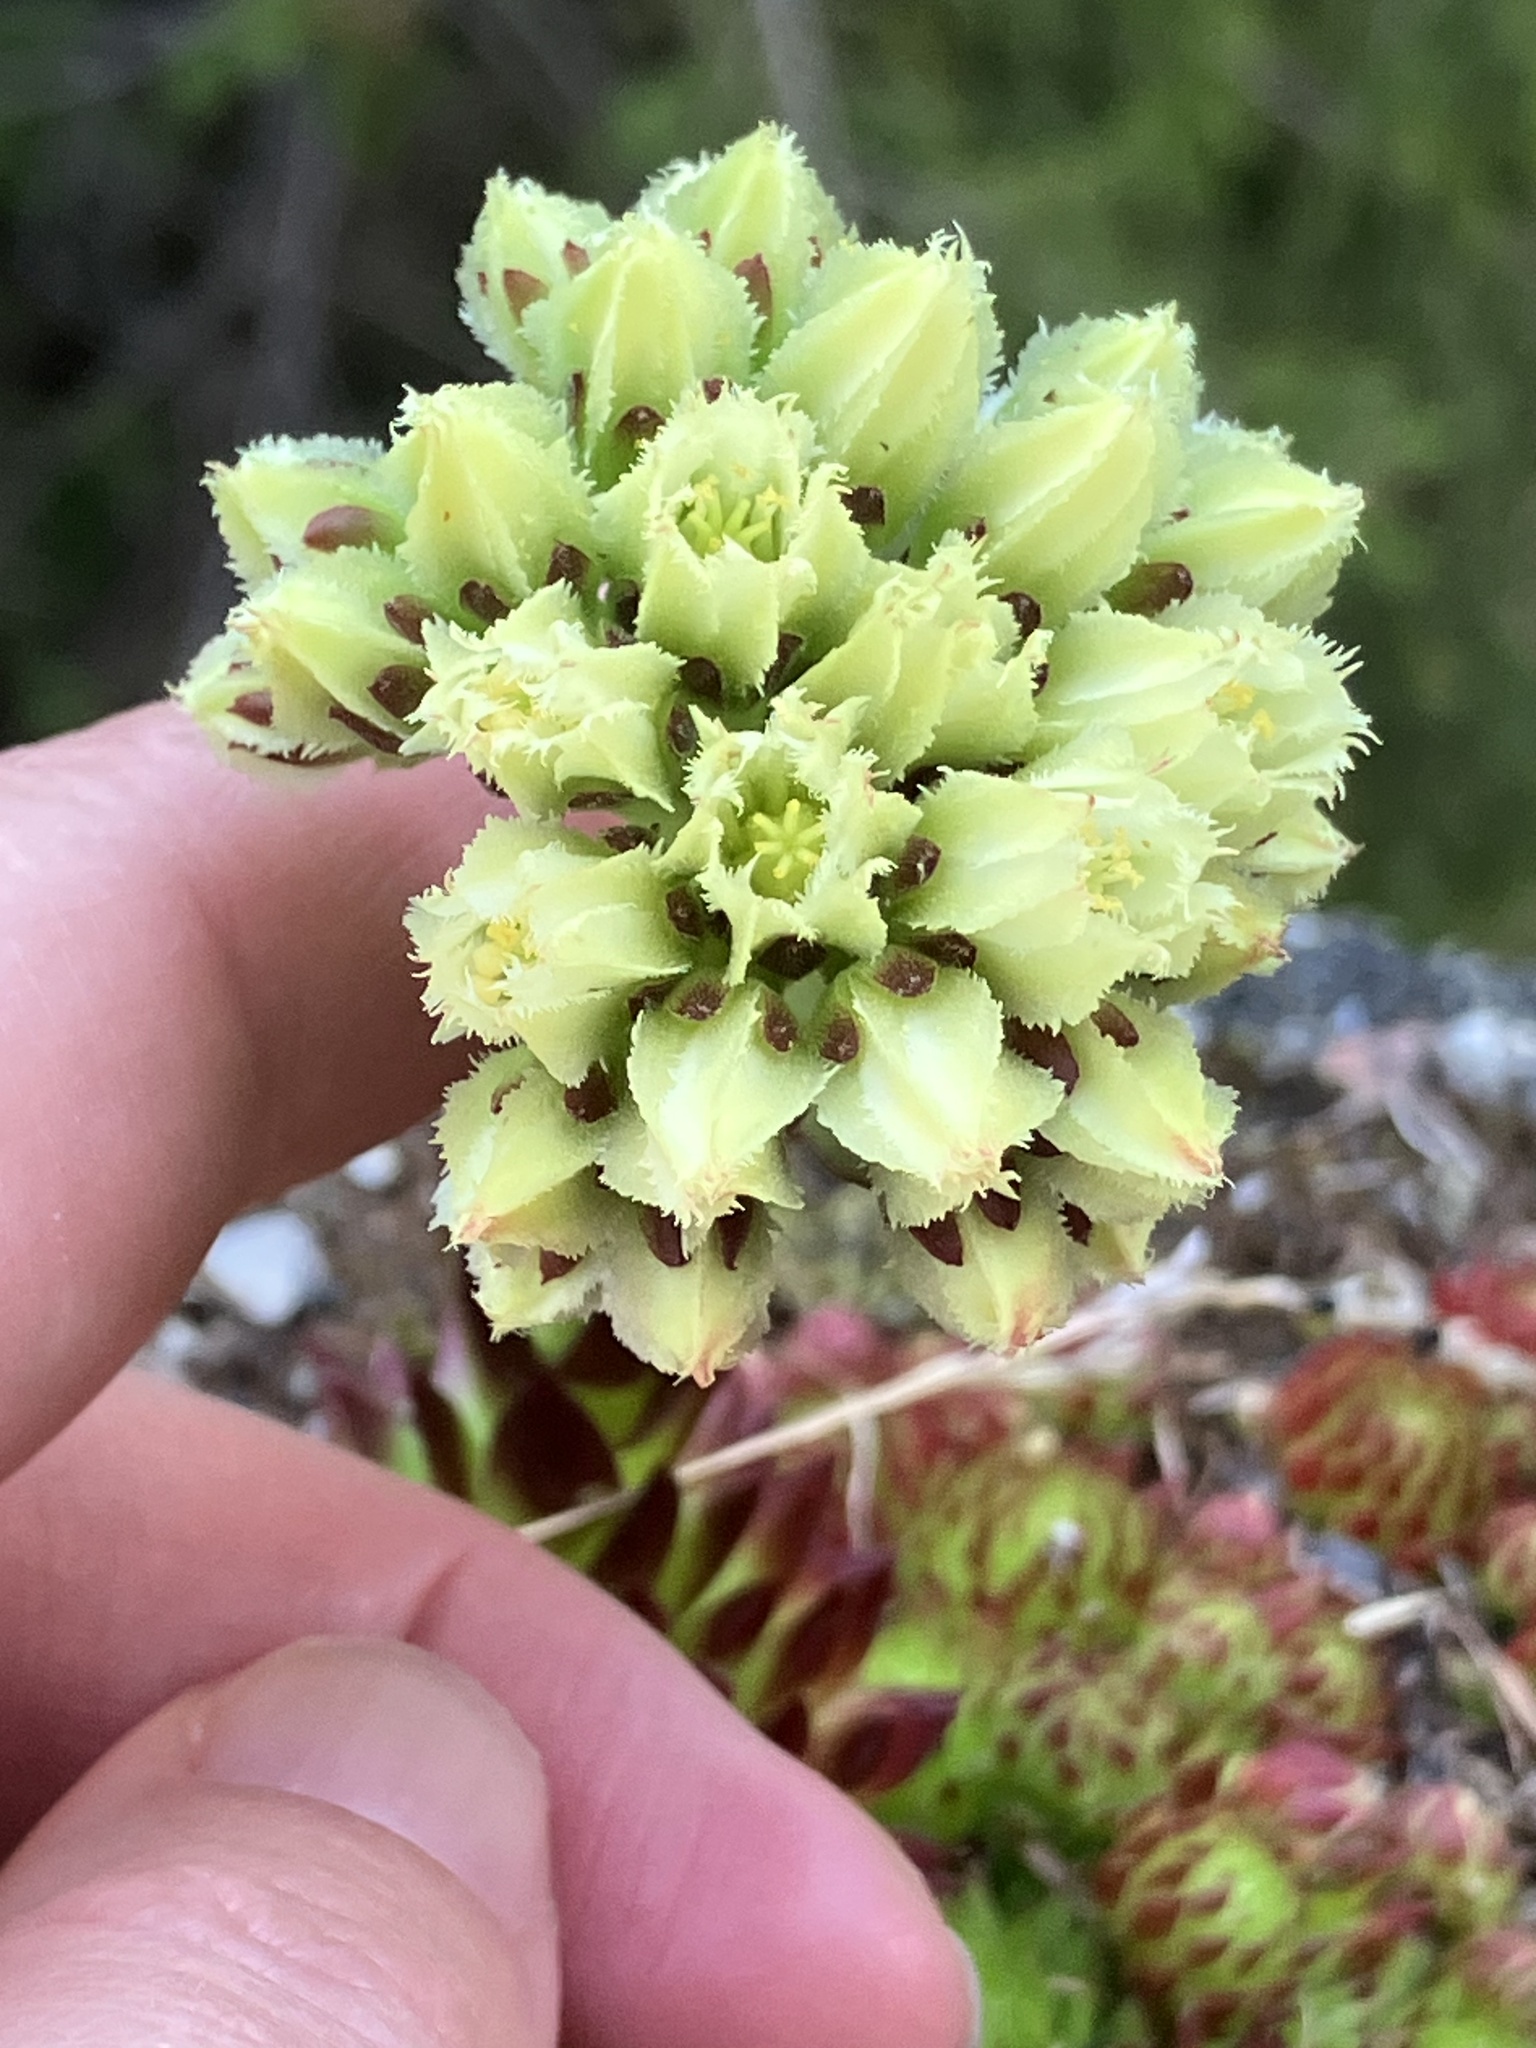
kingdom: Plantae
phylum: Tracheophyta
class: Magnoliopsida
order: Saxifragales
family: Crassulaceae
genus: Sempervivum
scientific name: Sempervivum globiferum
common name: Rolling hen-and-chicks
